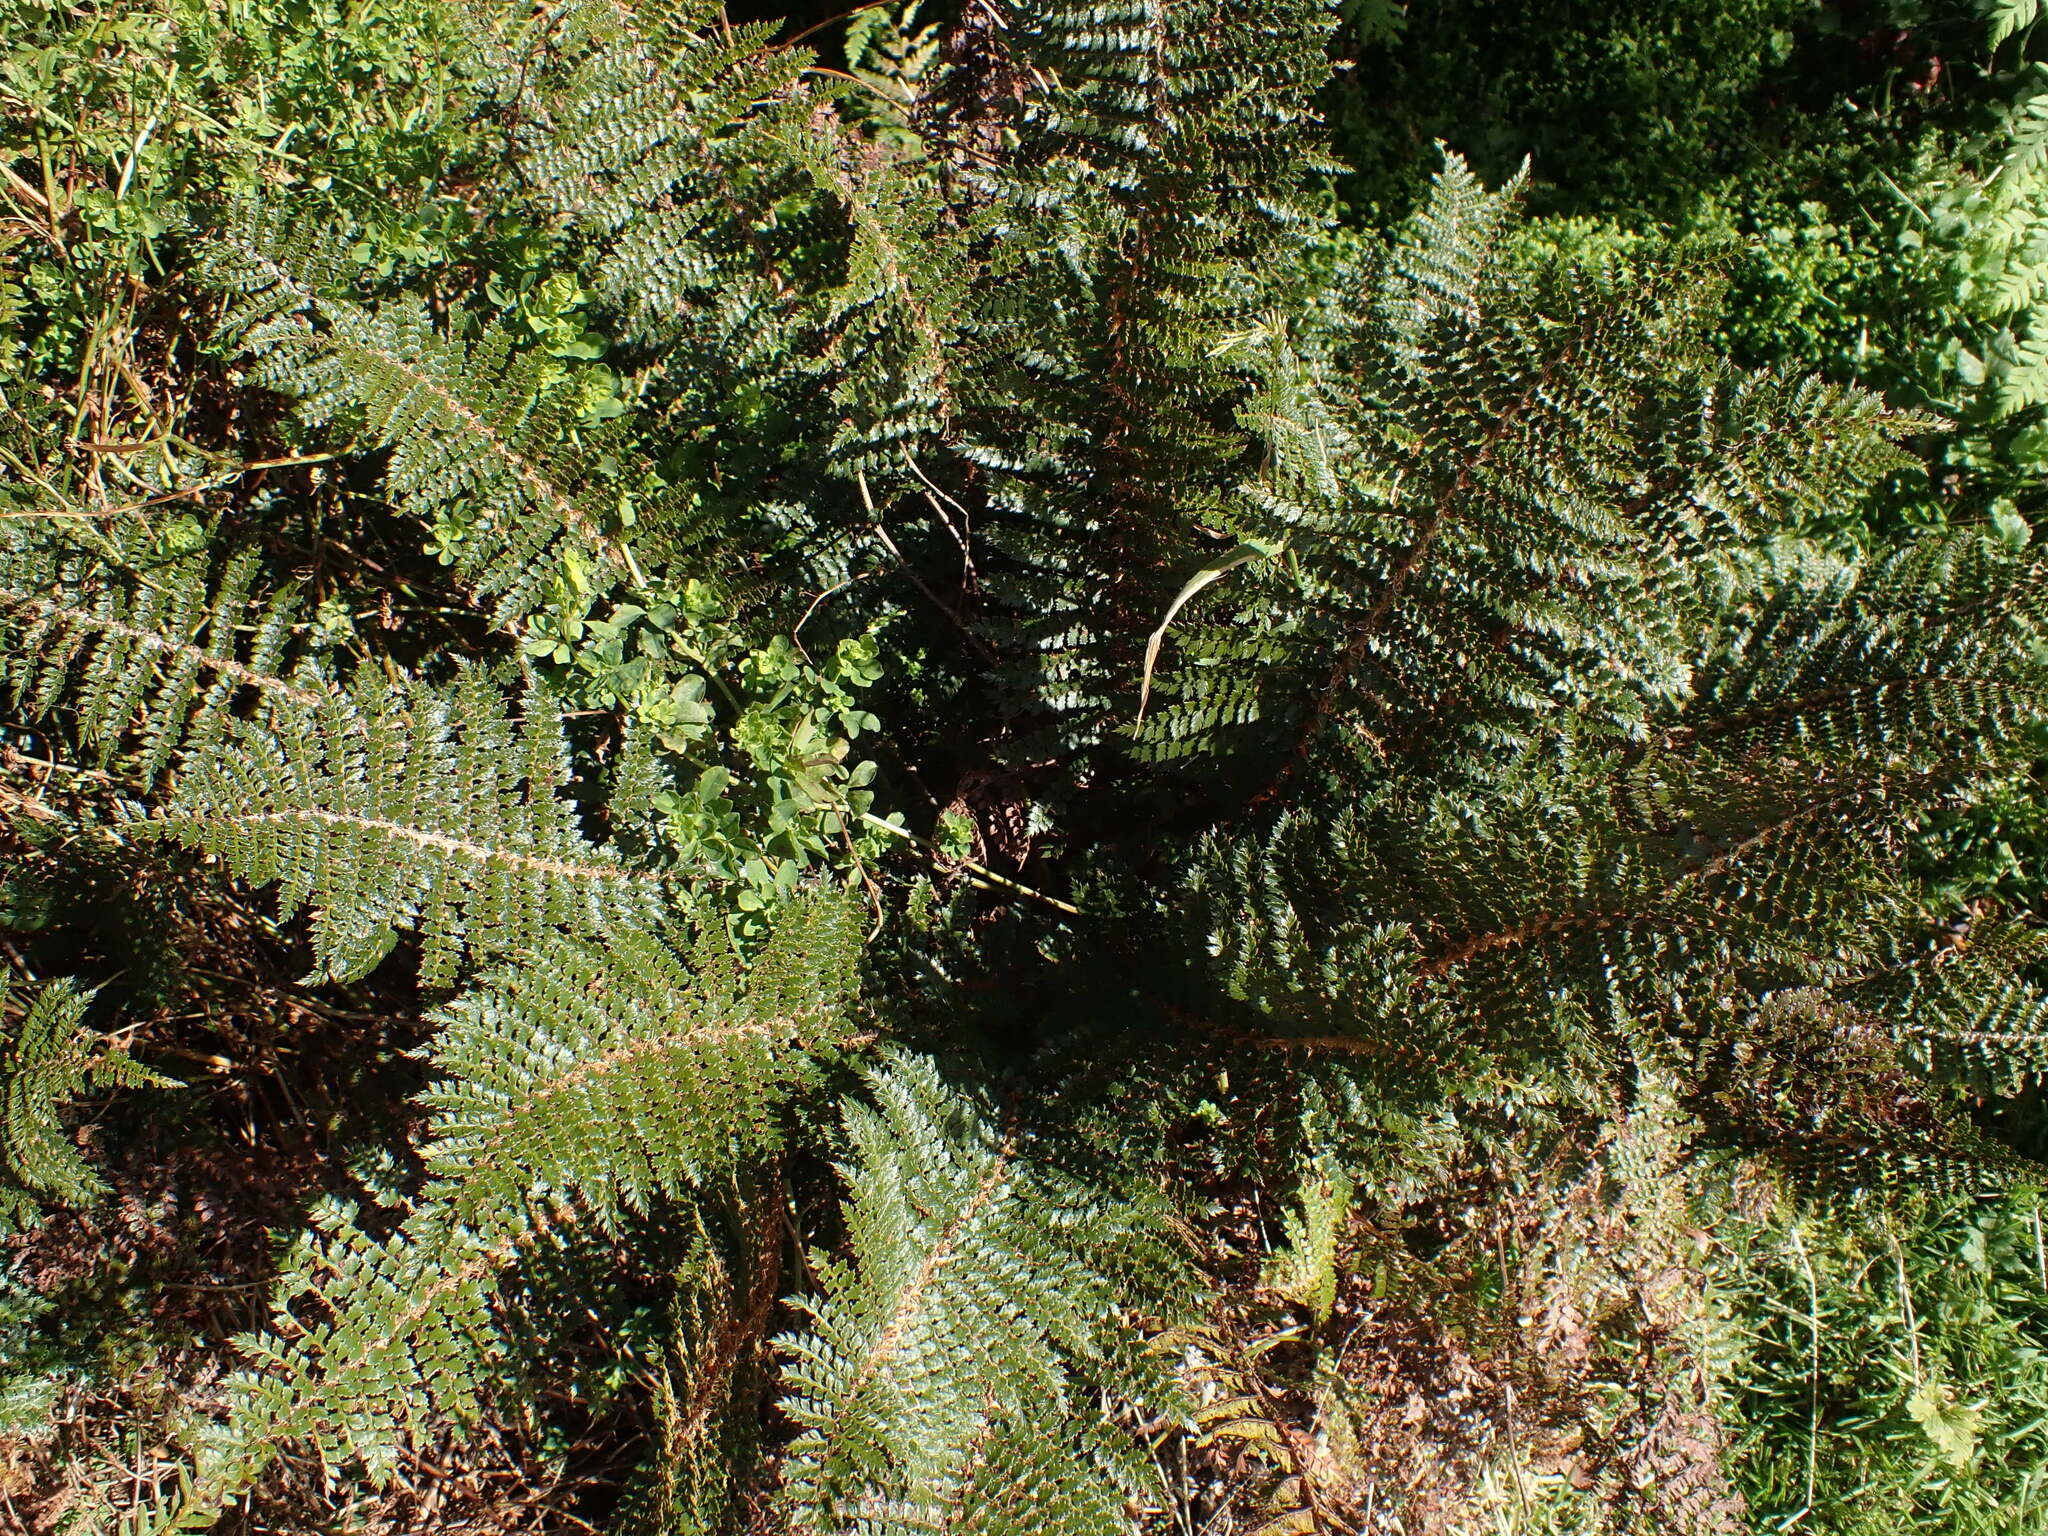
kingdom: Plantae
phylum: Tracheophyta
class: Polypodiopsida
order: Polypodiales
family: Dryopteridaceae
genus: Polystichum
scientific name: Polystichum vestitum
